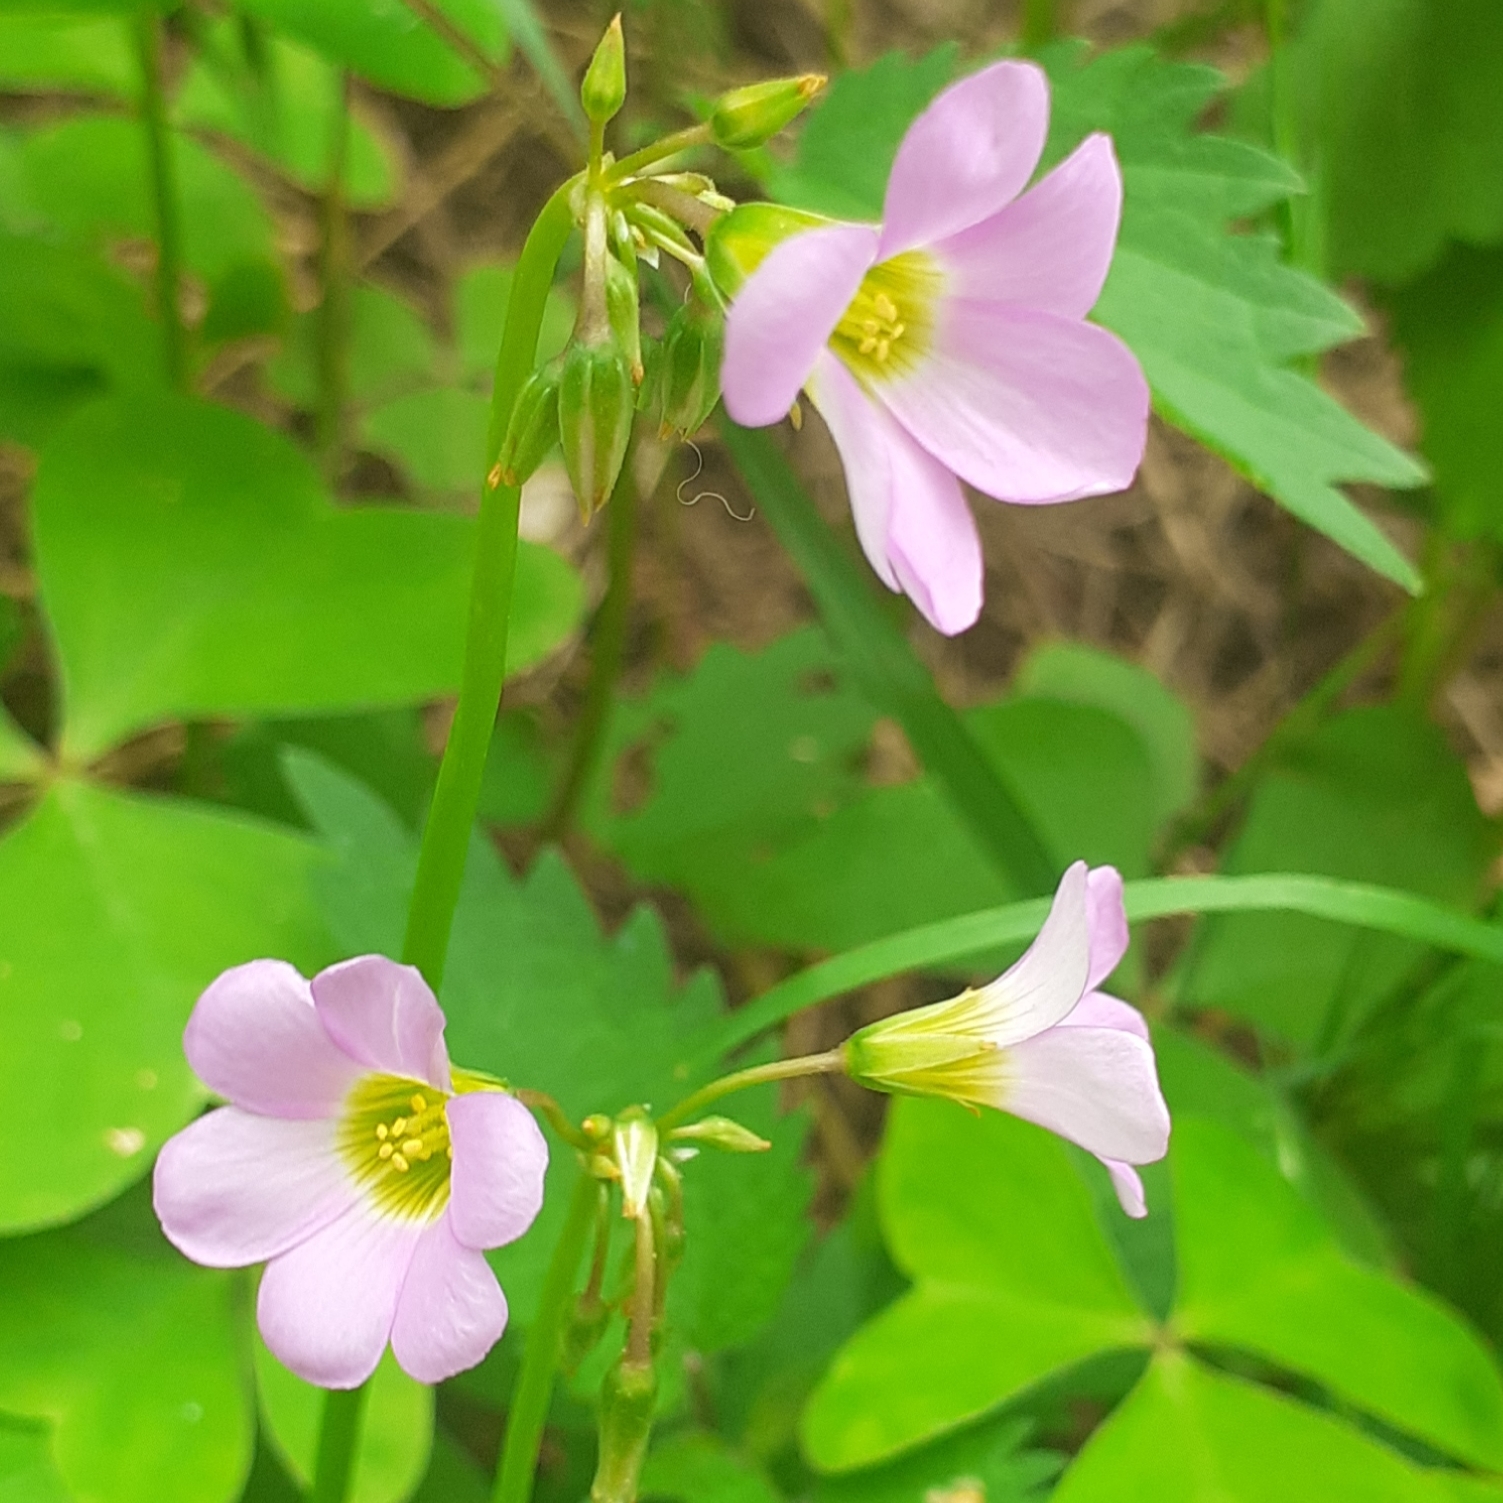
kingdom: Plantae
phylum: Tracheophyta
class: Magnoliopsida
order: Oxalidales
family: Oxalidaceae
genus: Oxalis
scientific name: Oxalis latifolia
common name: Garden pink-sorrel
